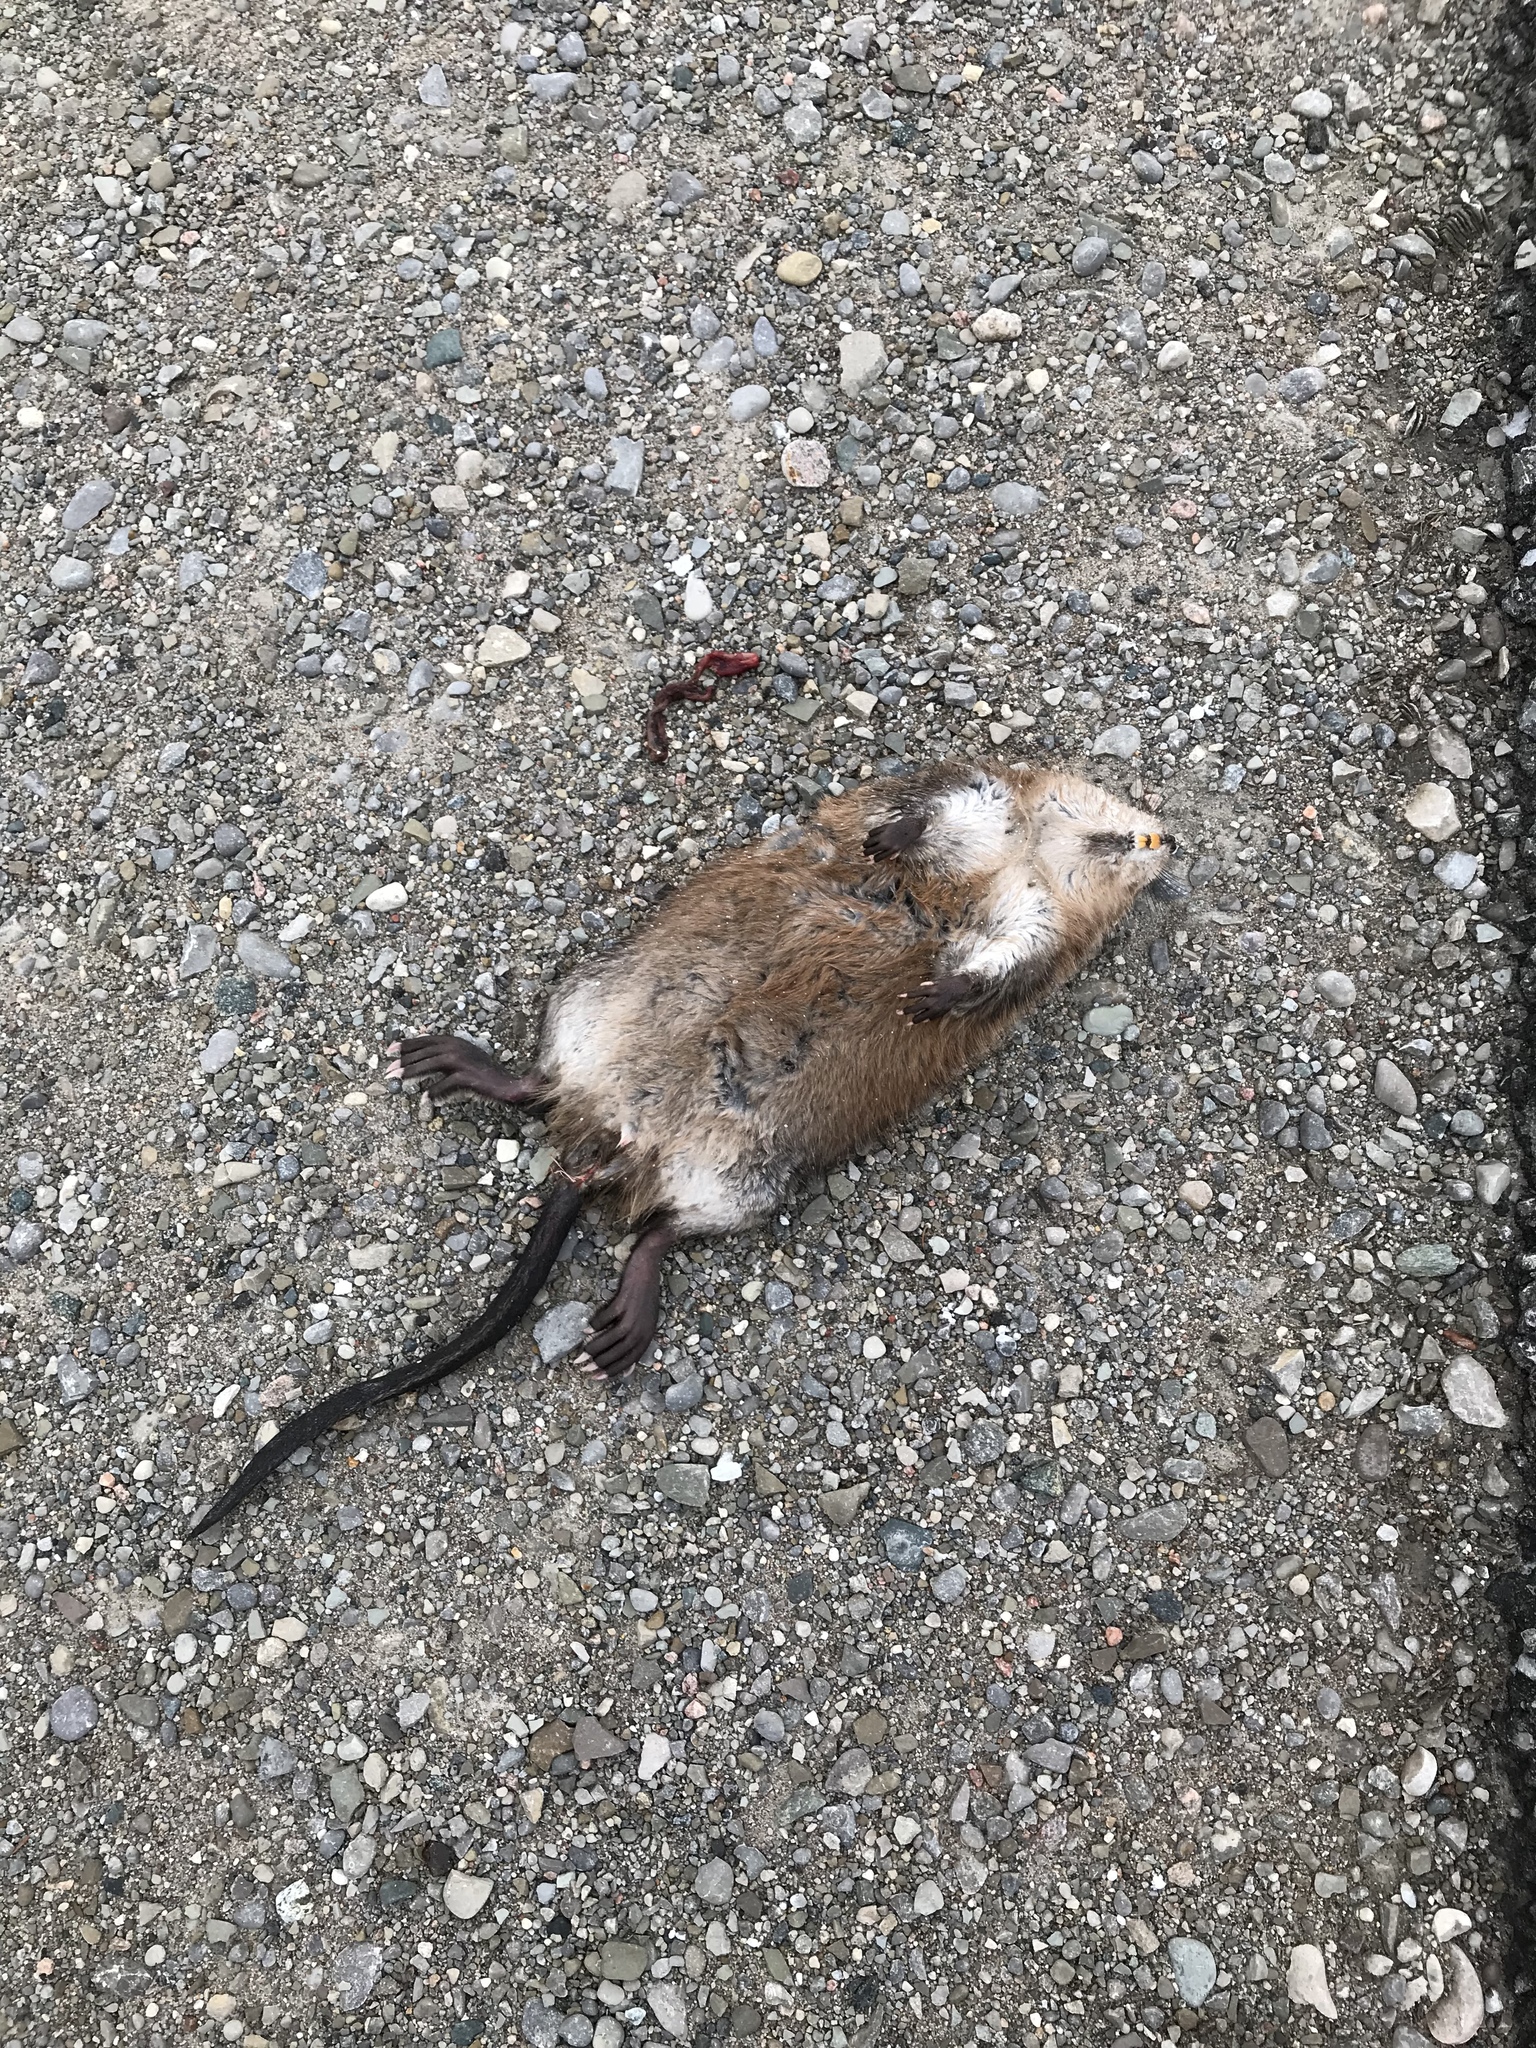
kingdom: Animalia
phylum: Chordata
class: Mammalia
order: Rodentia
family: Cricetidae
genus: Ondatra
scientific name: Ondatra zibethicus
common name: Muskrat
